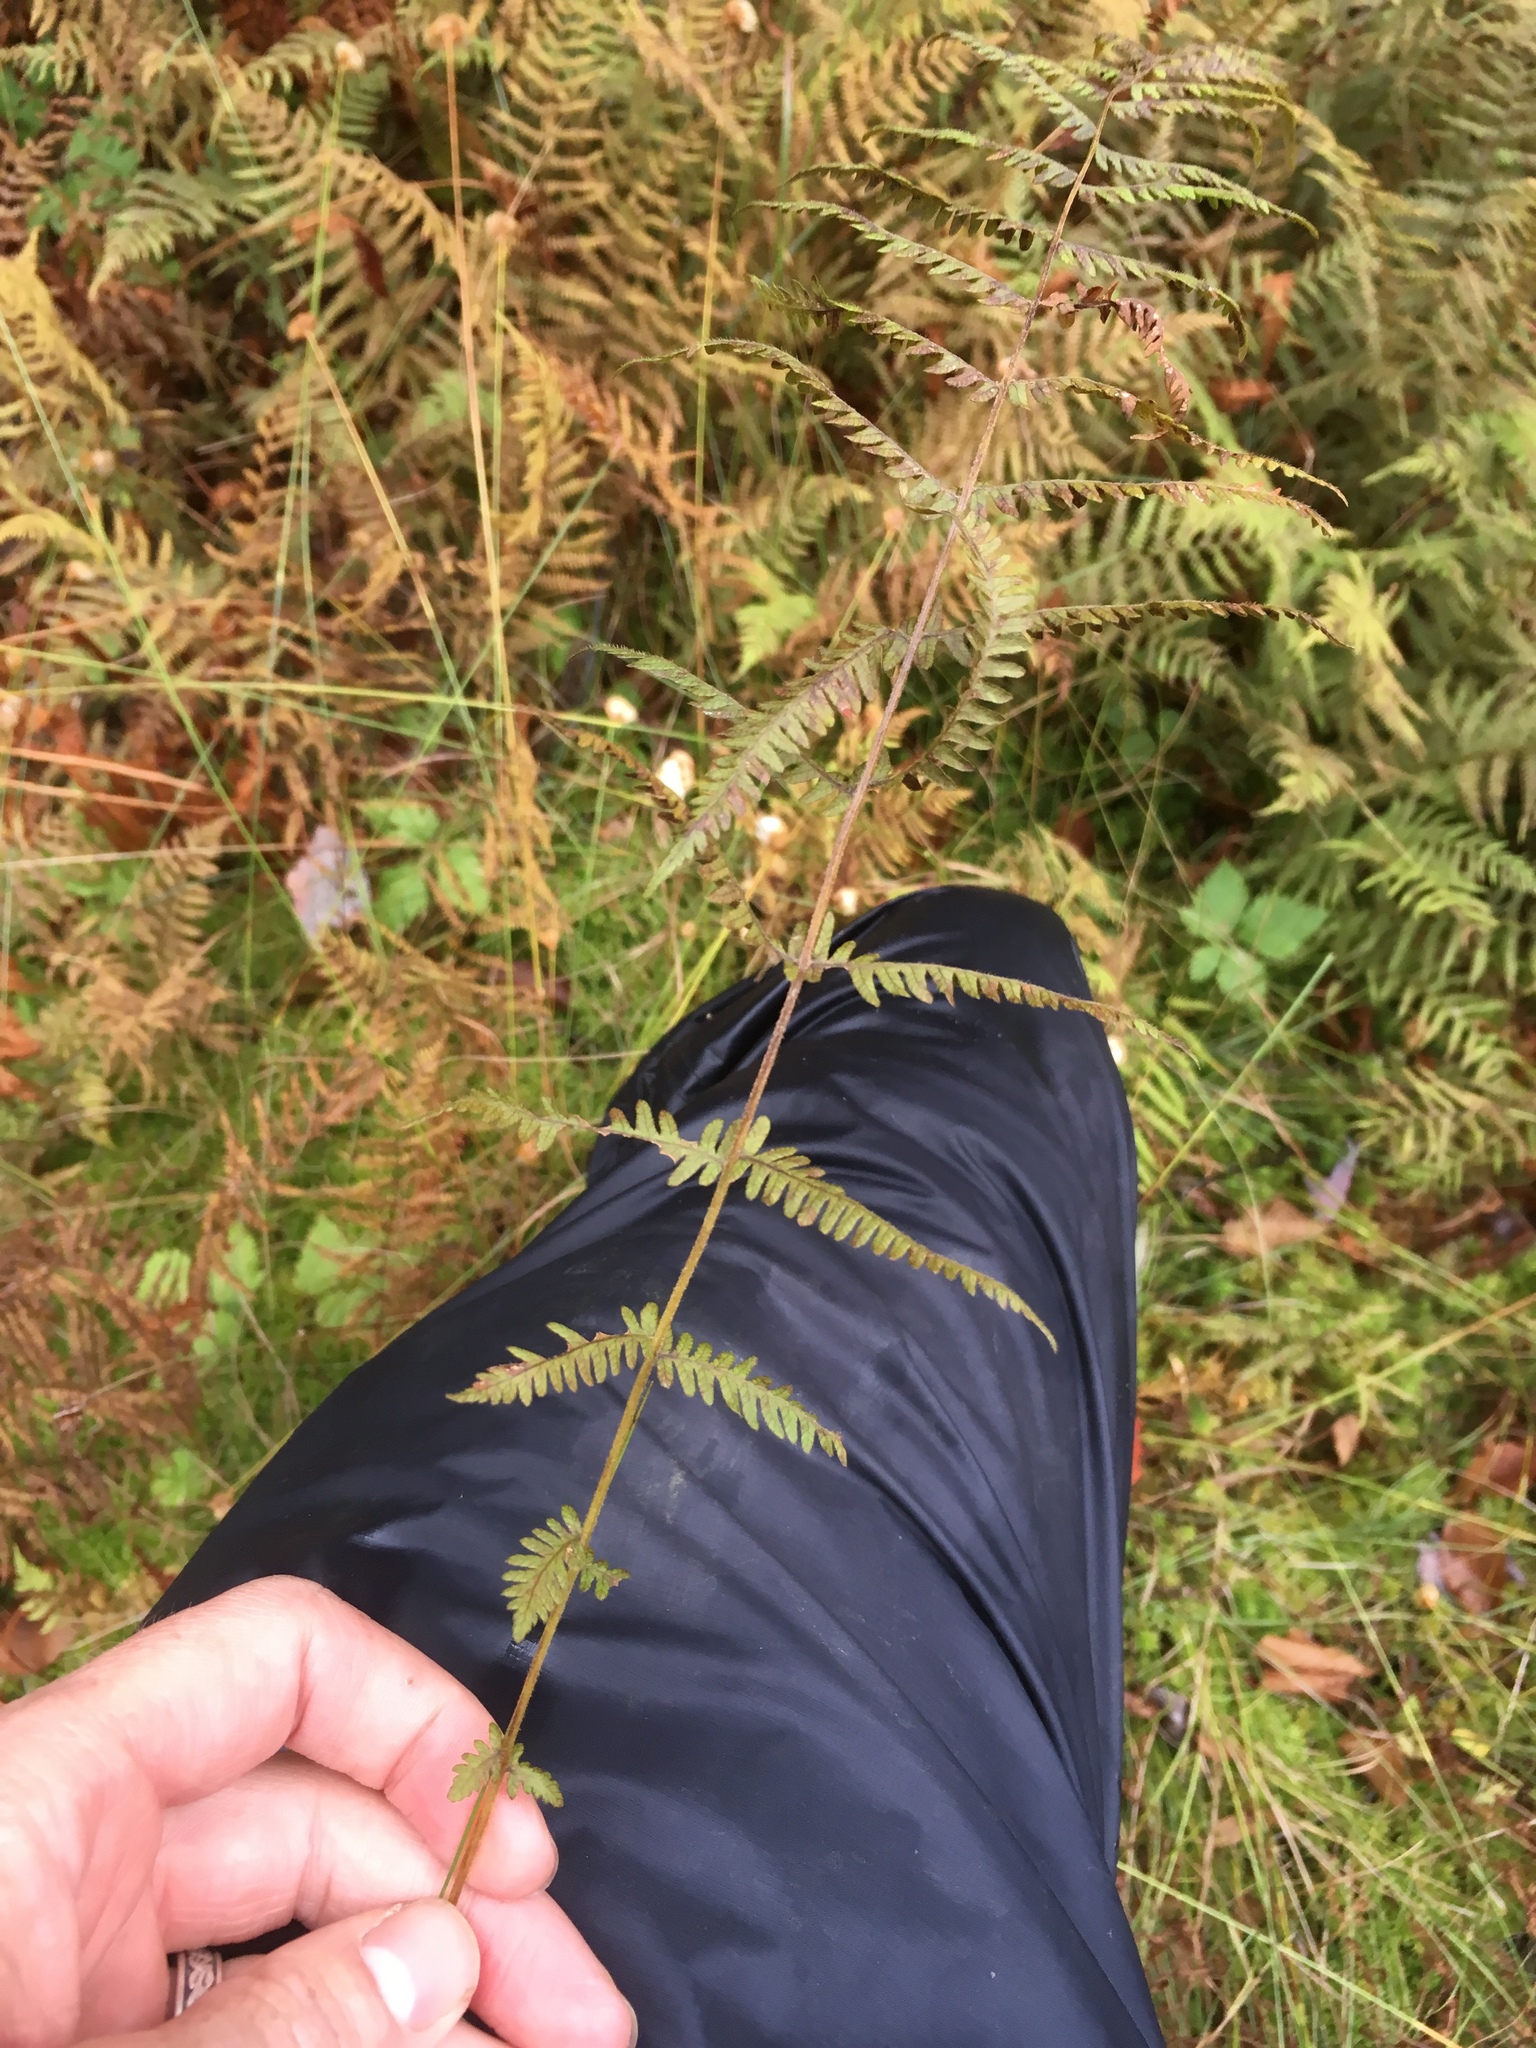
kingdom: Plantae
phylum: Tracheophyta
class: Polypodiopsida
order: Polypodiales
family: Thelypteridaceae
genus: Amauropelta
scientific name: Amauropelta noveboracensis
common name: New york fern
